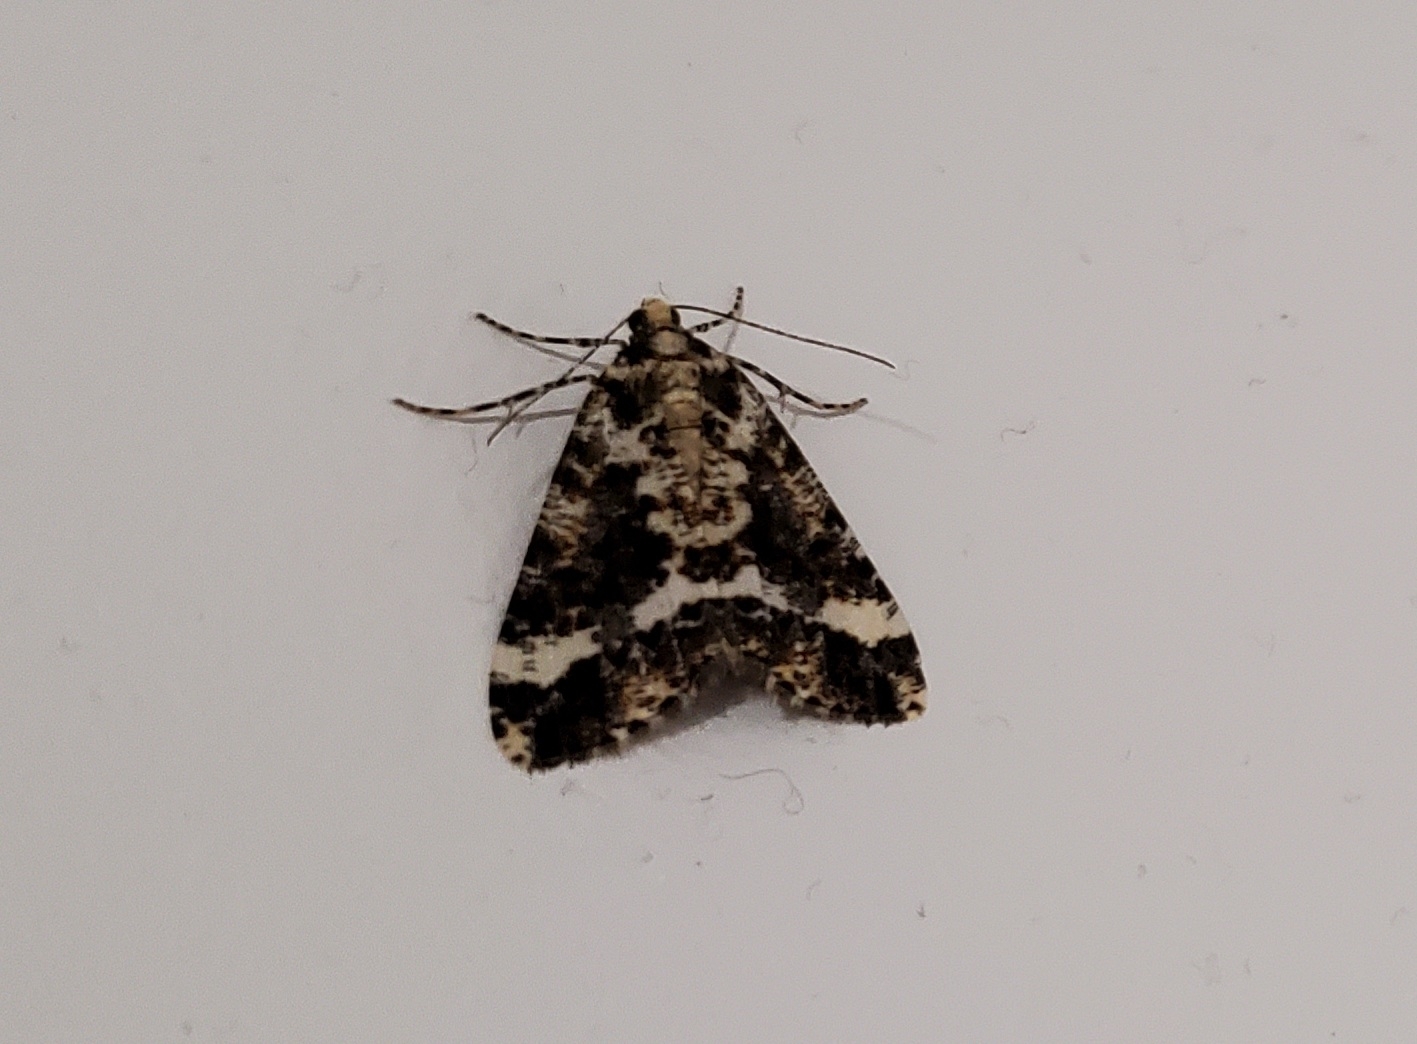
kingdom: Animalia
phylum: Arthropoda
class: Insecta
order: Lepidoptera
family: Geometridae
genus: Pseudocoremia
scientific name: Pseudocoremia leucelaea
